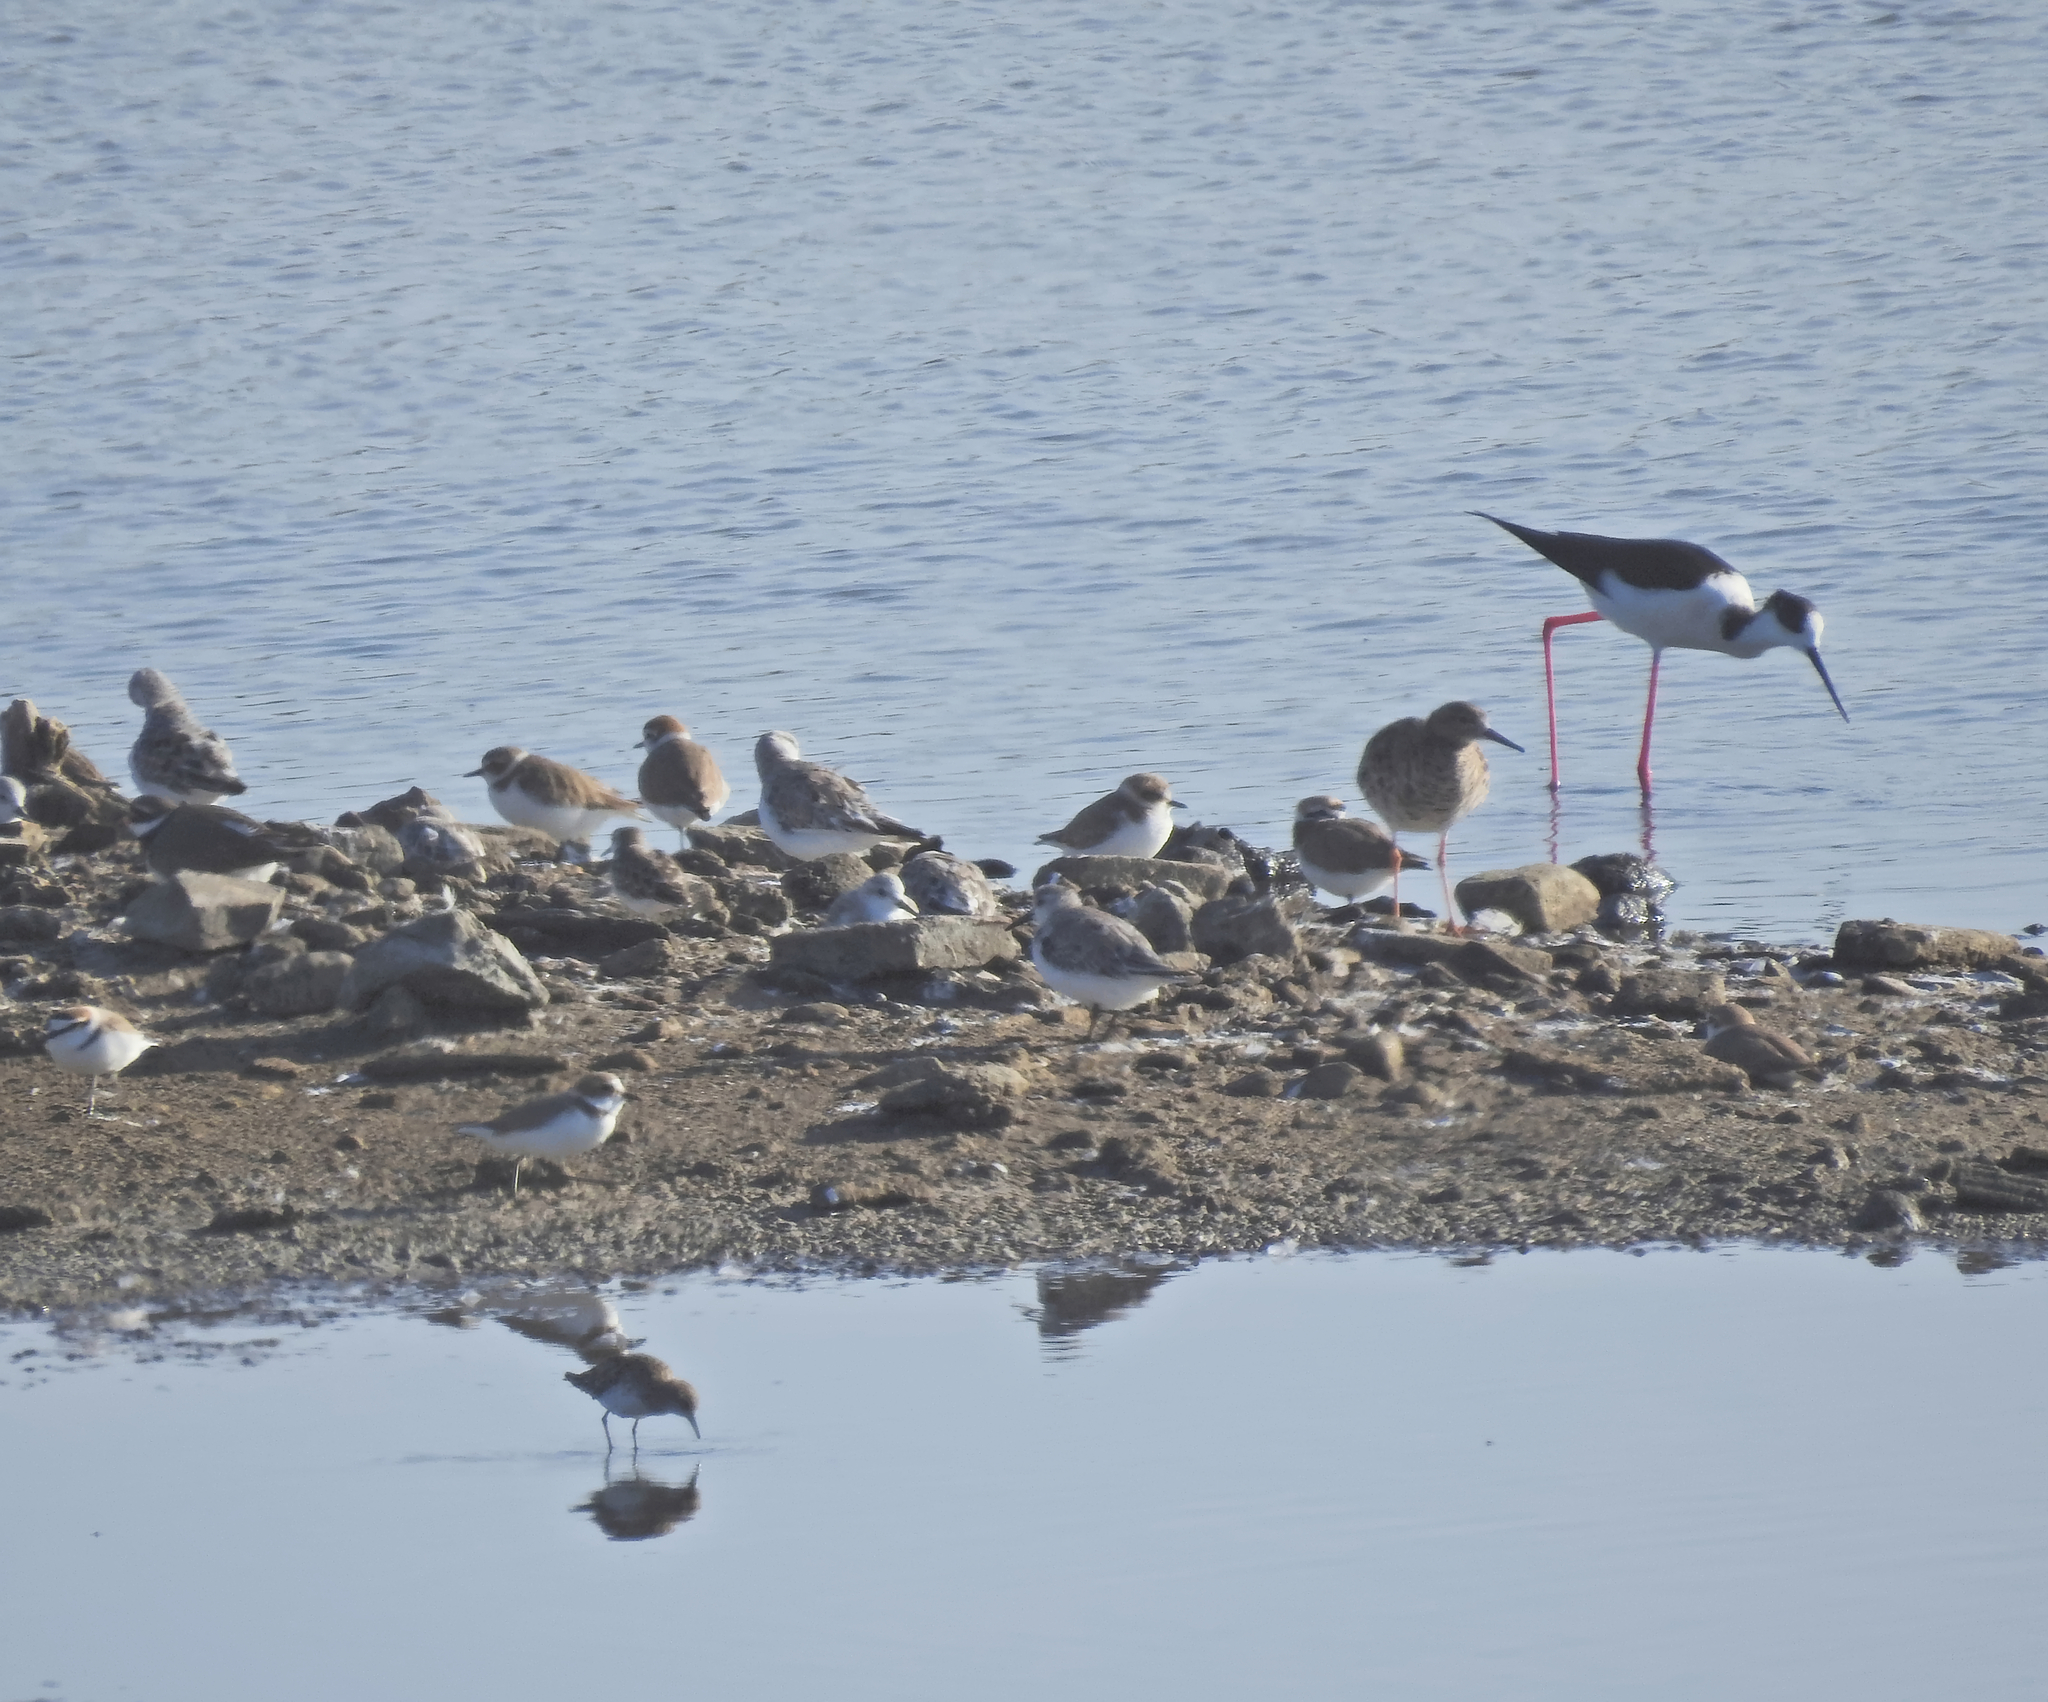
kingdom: Animalia
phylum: Chordata
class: Aves
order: Charadriiformes
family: Scolopacidae
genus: Calidris
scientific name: Calidris pugnax
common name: Ruff
